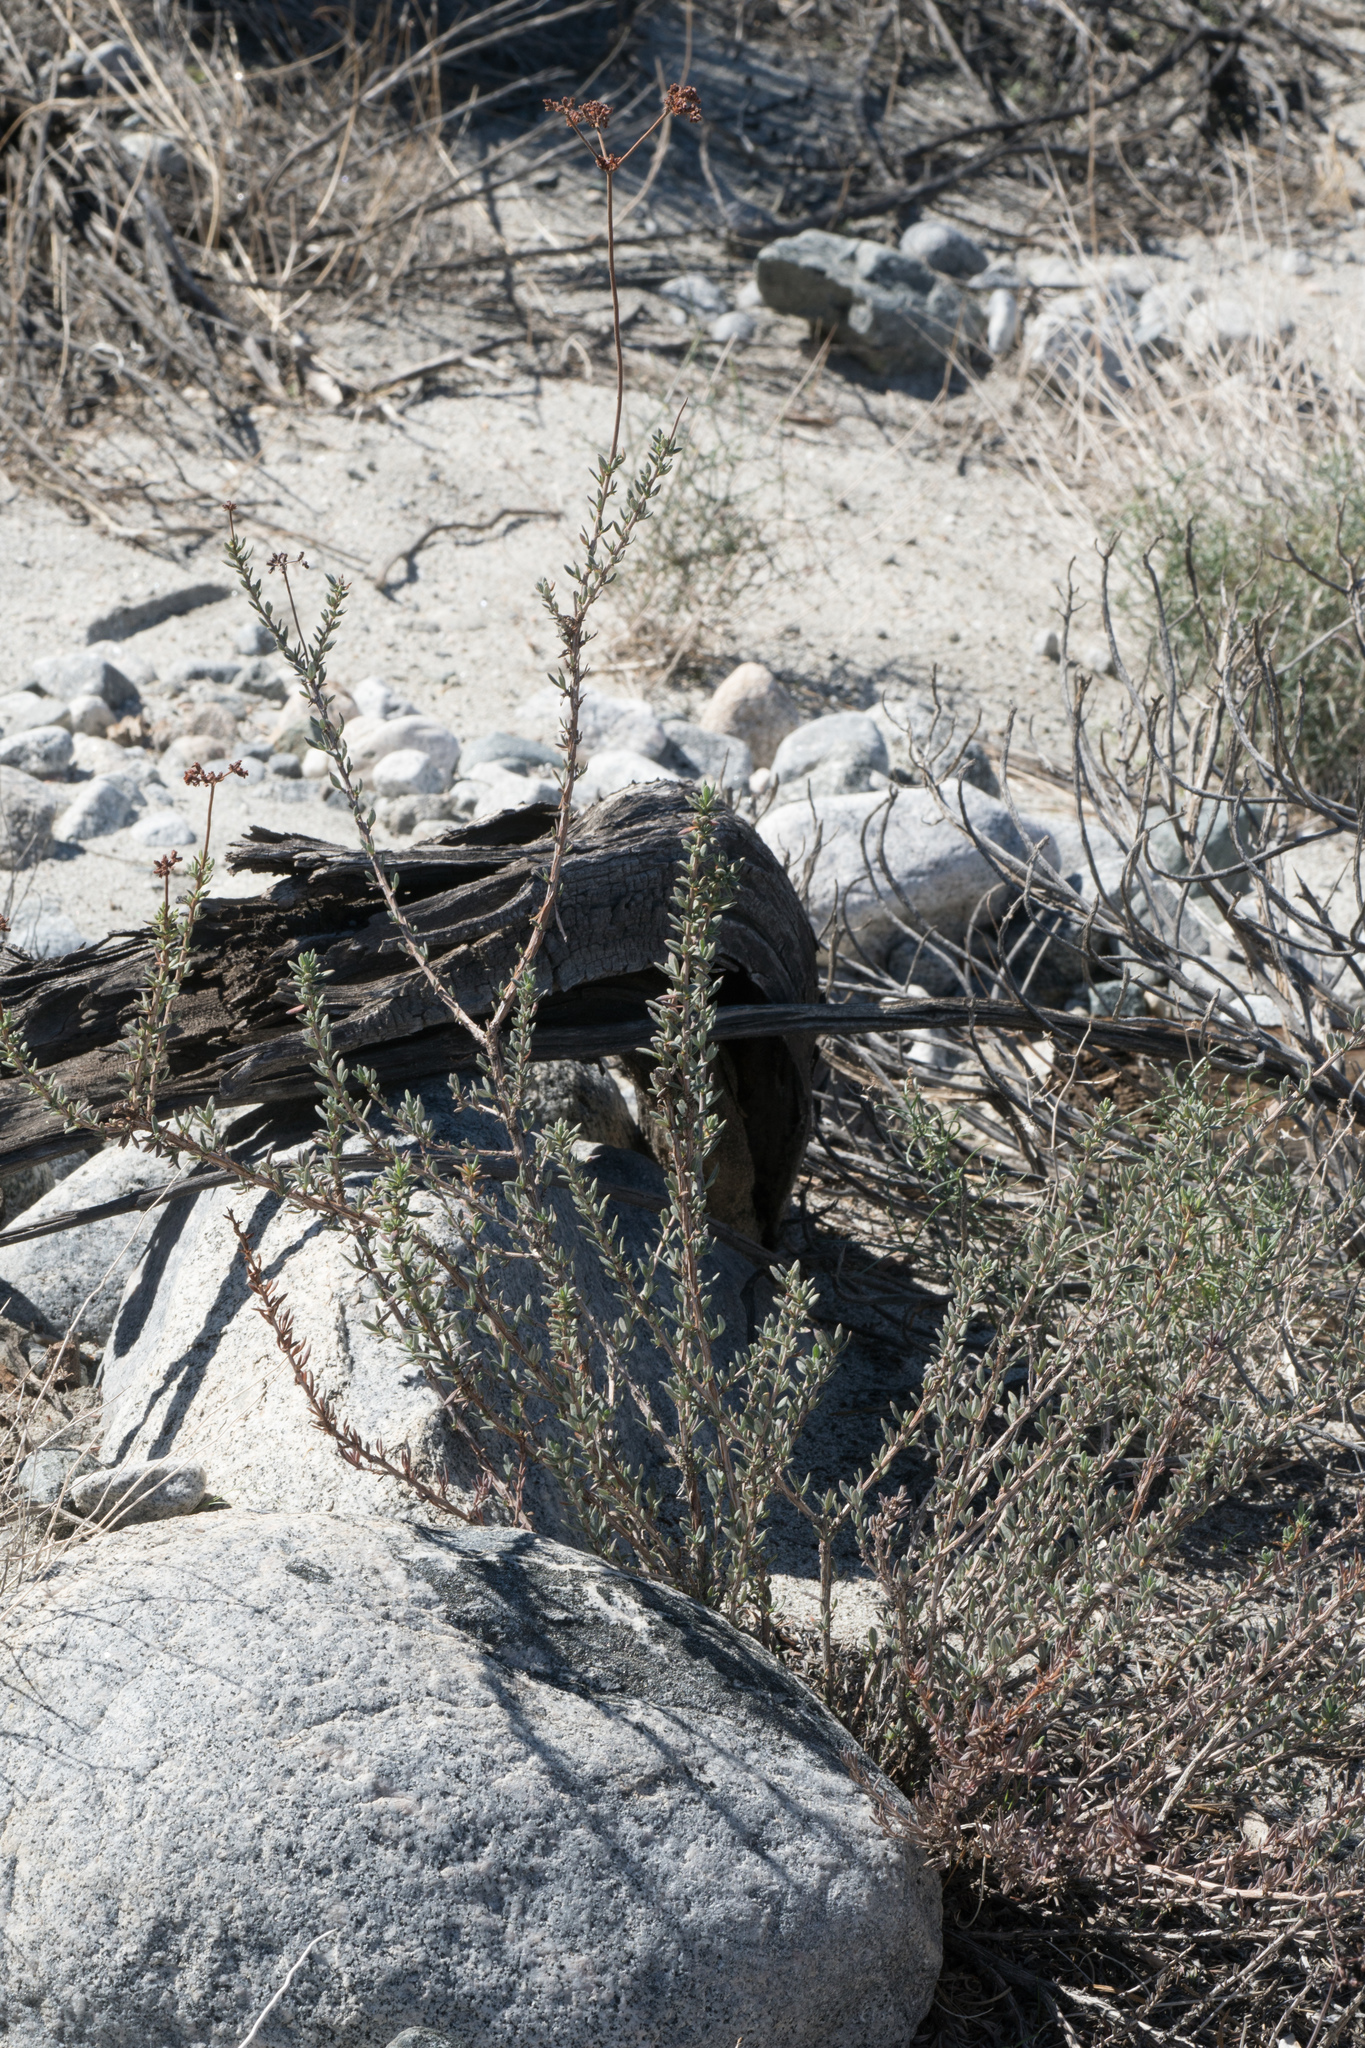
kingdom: Plantae
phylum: Tracheophyta
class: Magnoliopsida
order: Caryophyllales
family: Polygonaceae
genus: Eriogonum
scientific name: Eriogonum fasciculatum
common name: California wild buckwheat
